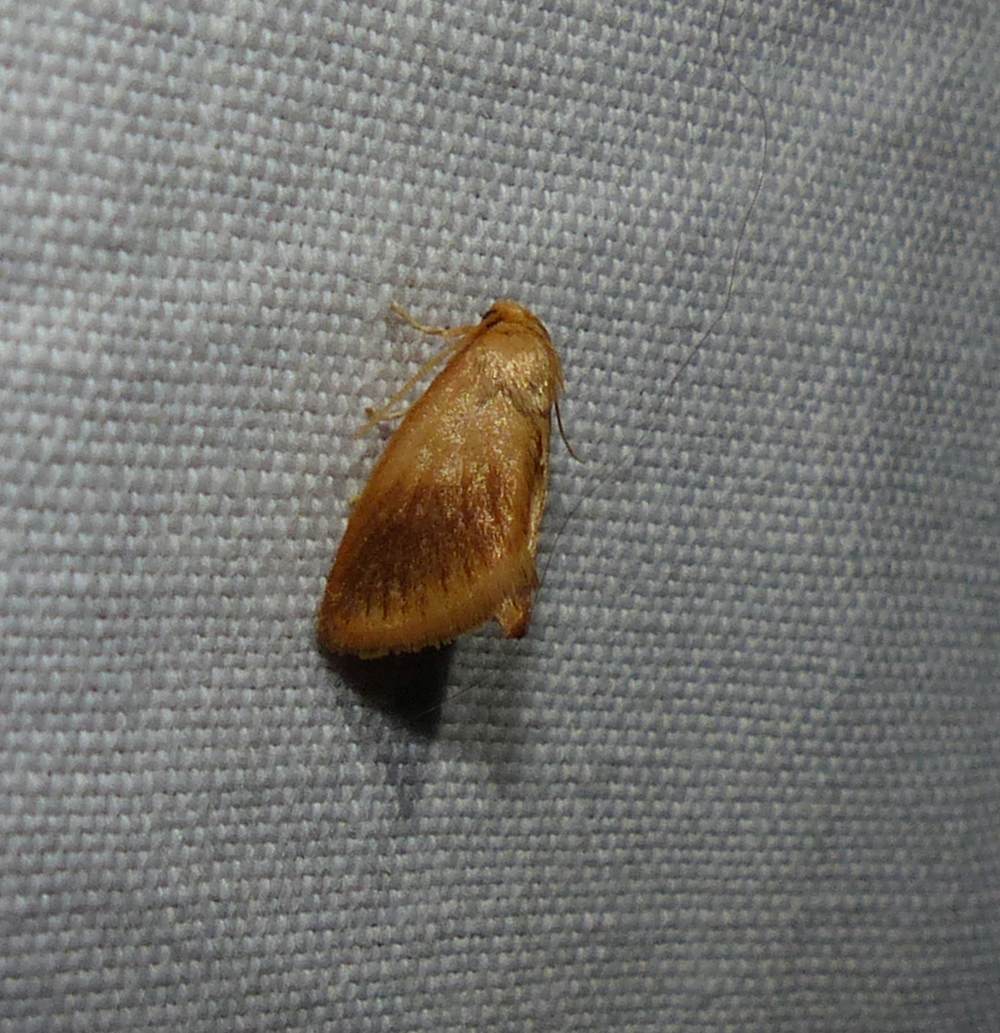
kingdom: Animalia
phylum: Arthropoda
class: Insecta
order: Lepidoptera
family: Limacodidae
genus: Tortricidia
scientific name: Tortricidia testacea
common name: Early button slug moth
